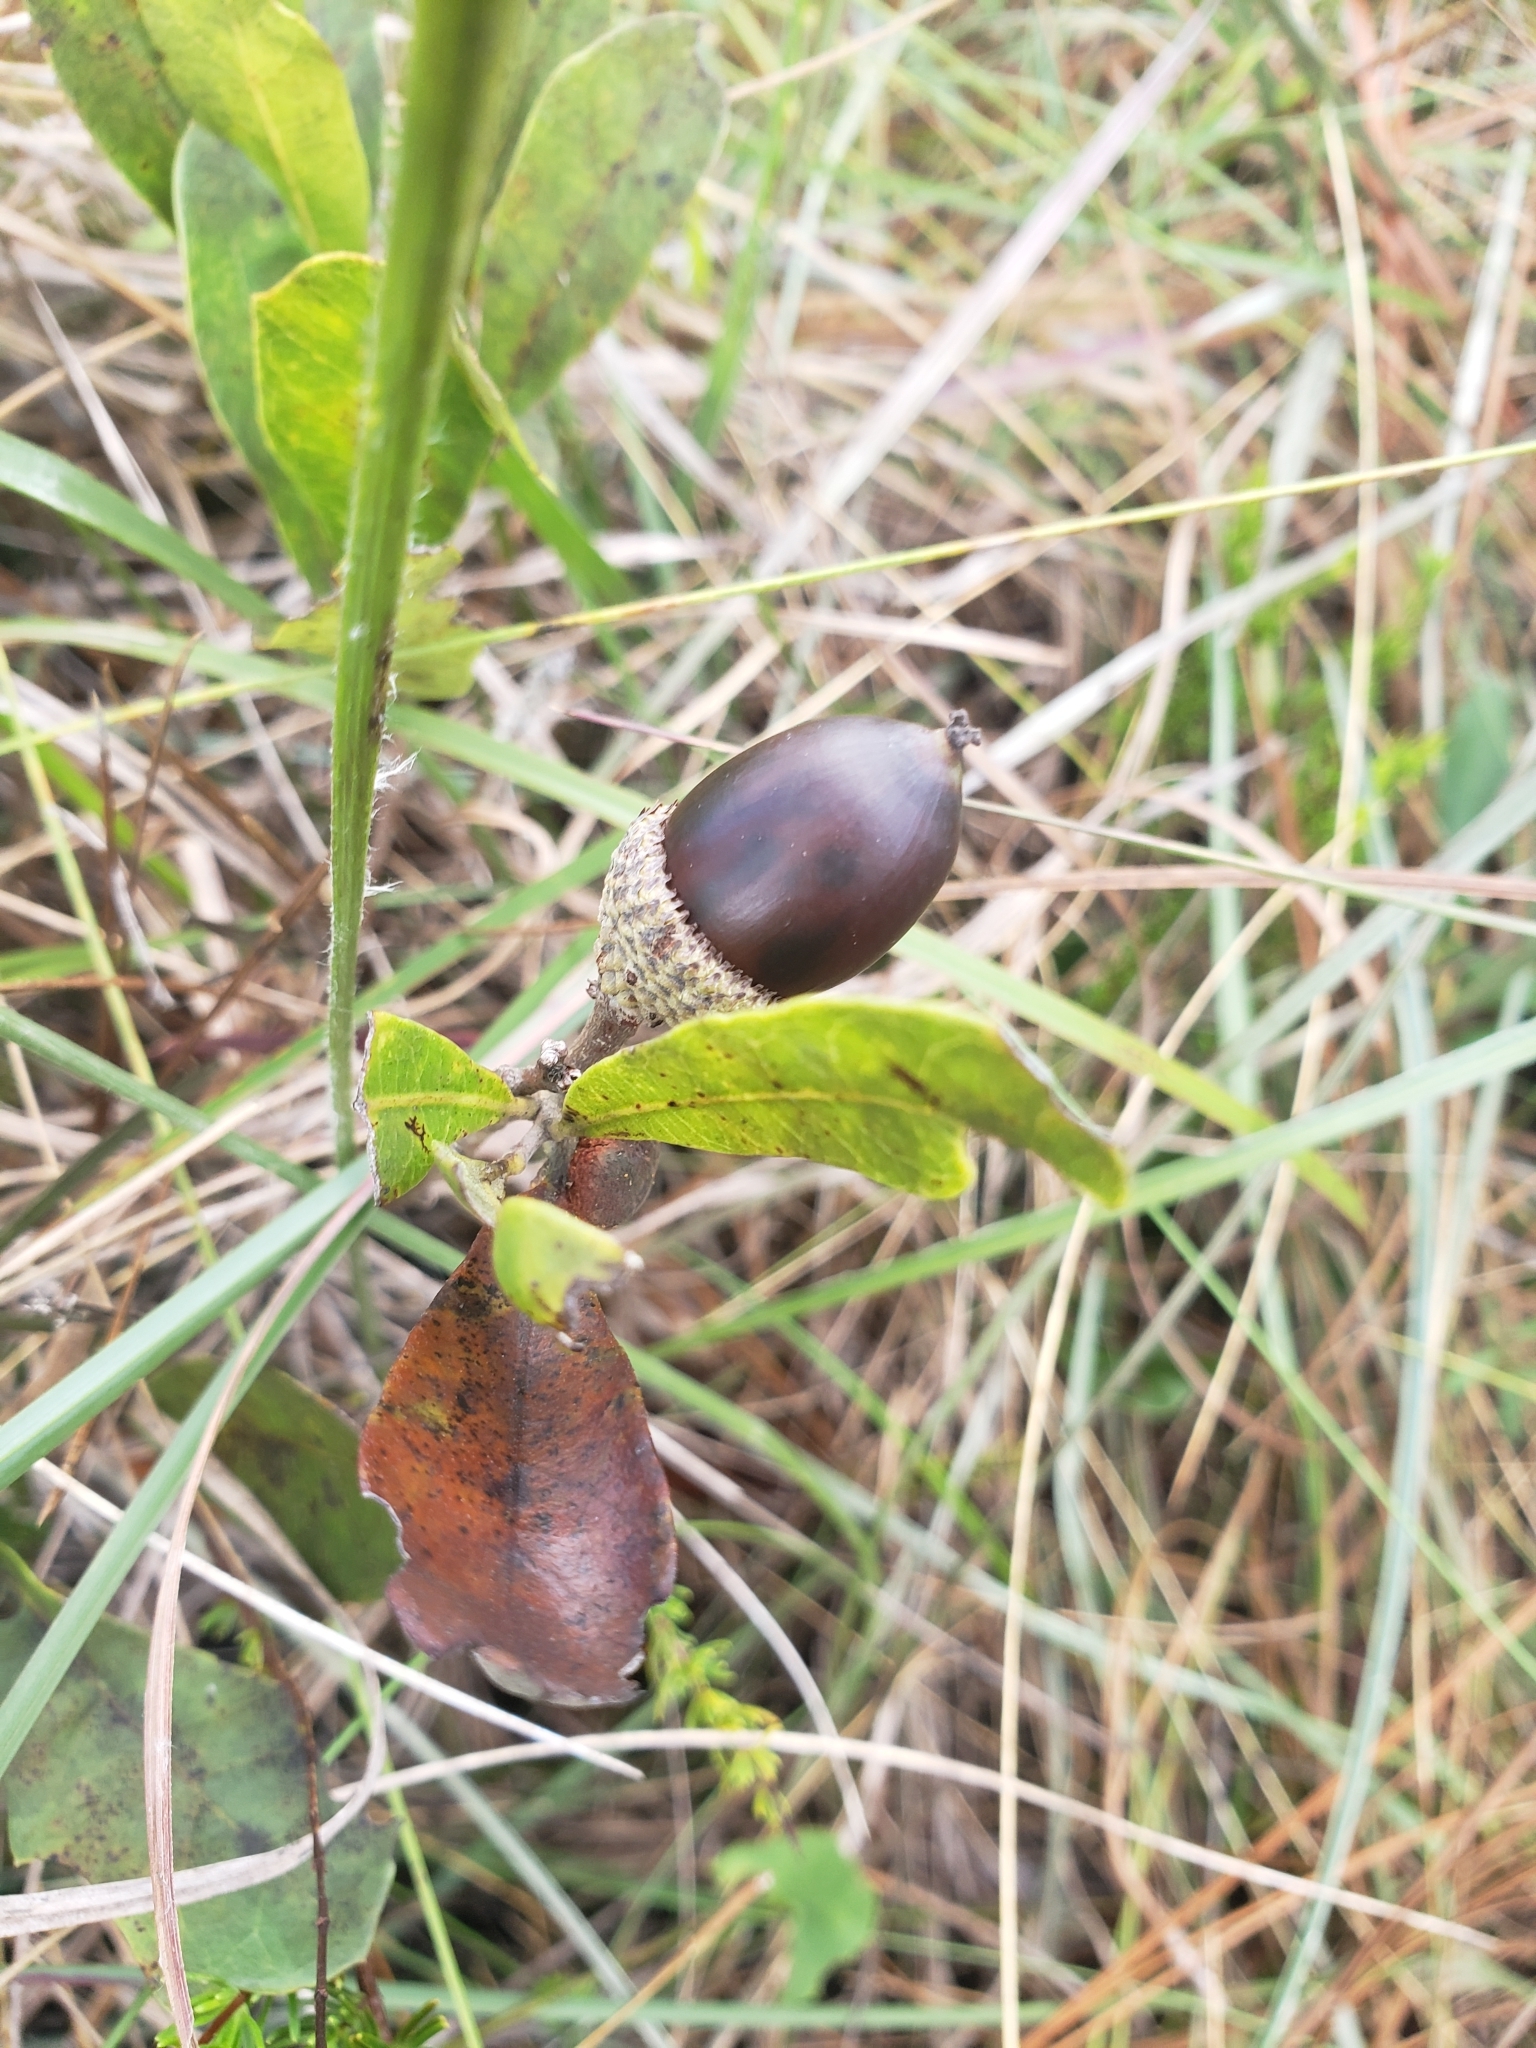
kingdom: Plantae
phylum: Tracheophyta
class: Magnoliopsida
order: Fagales
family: Fagaceae
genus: Quercus
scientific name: Quercus minima
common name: Dwarf live oak
